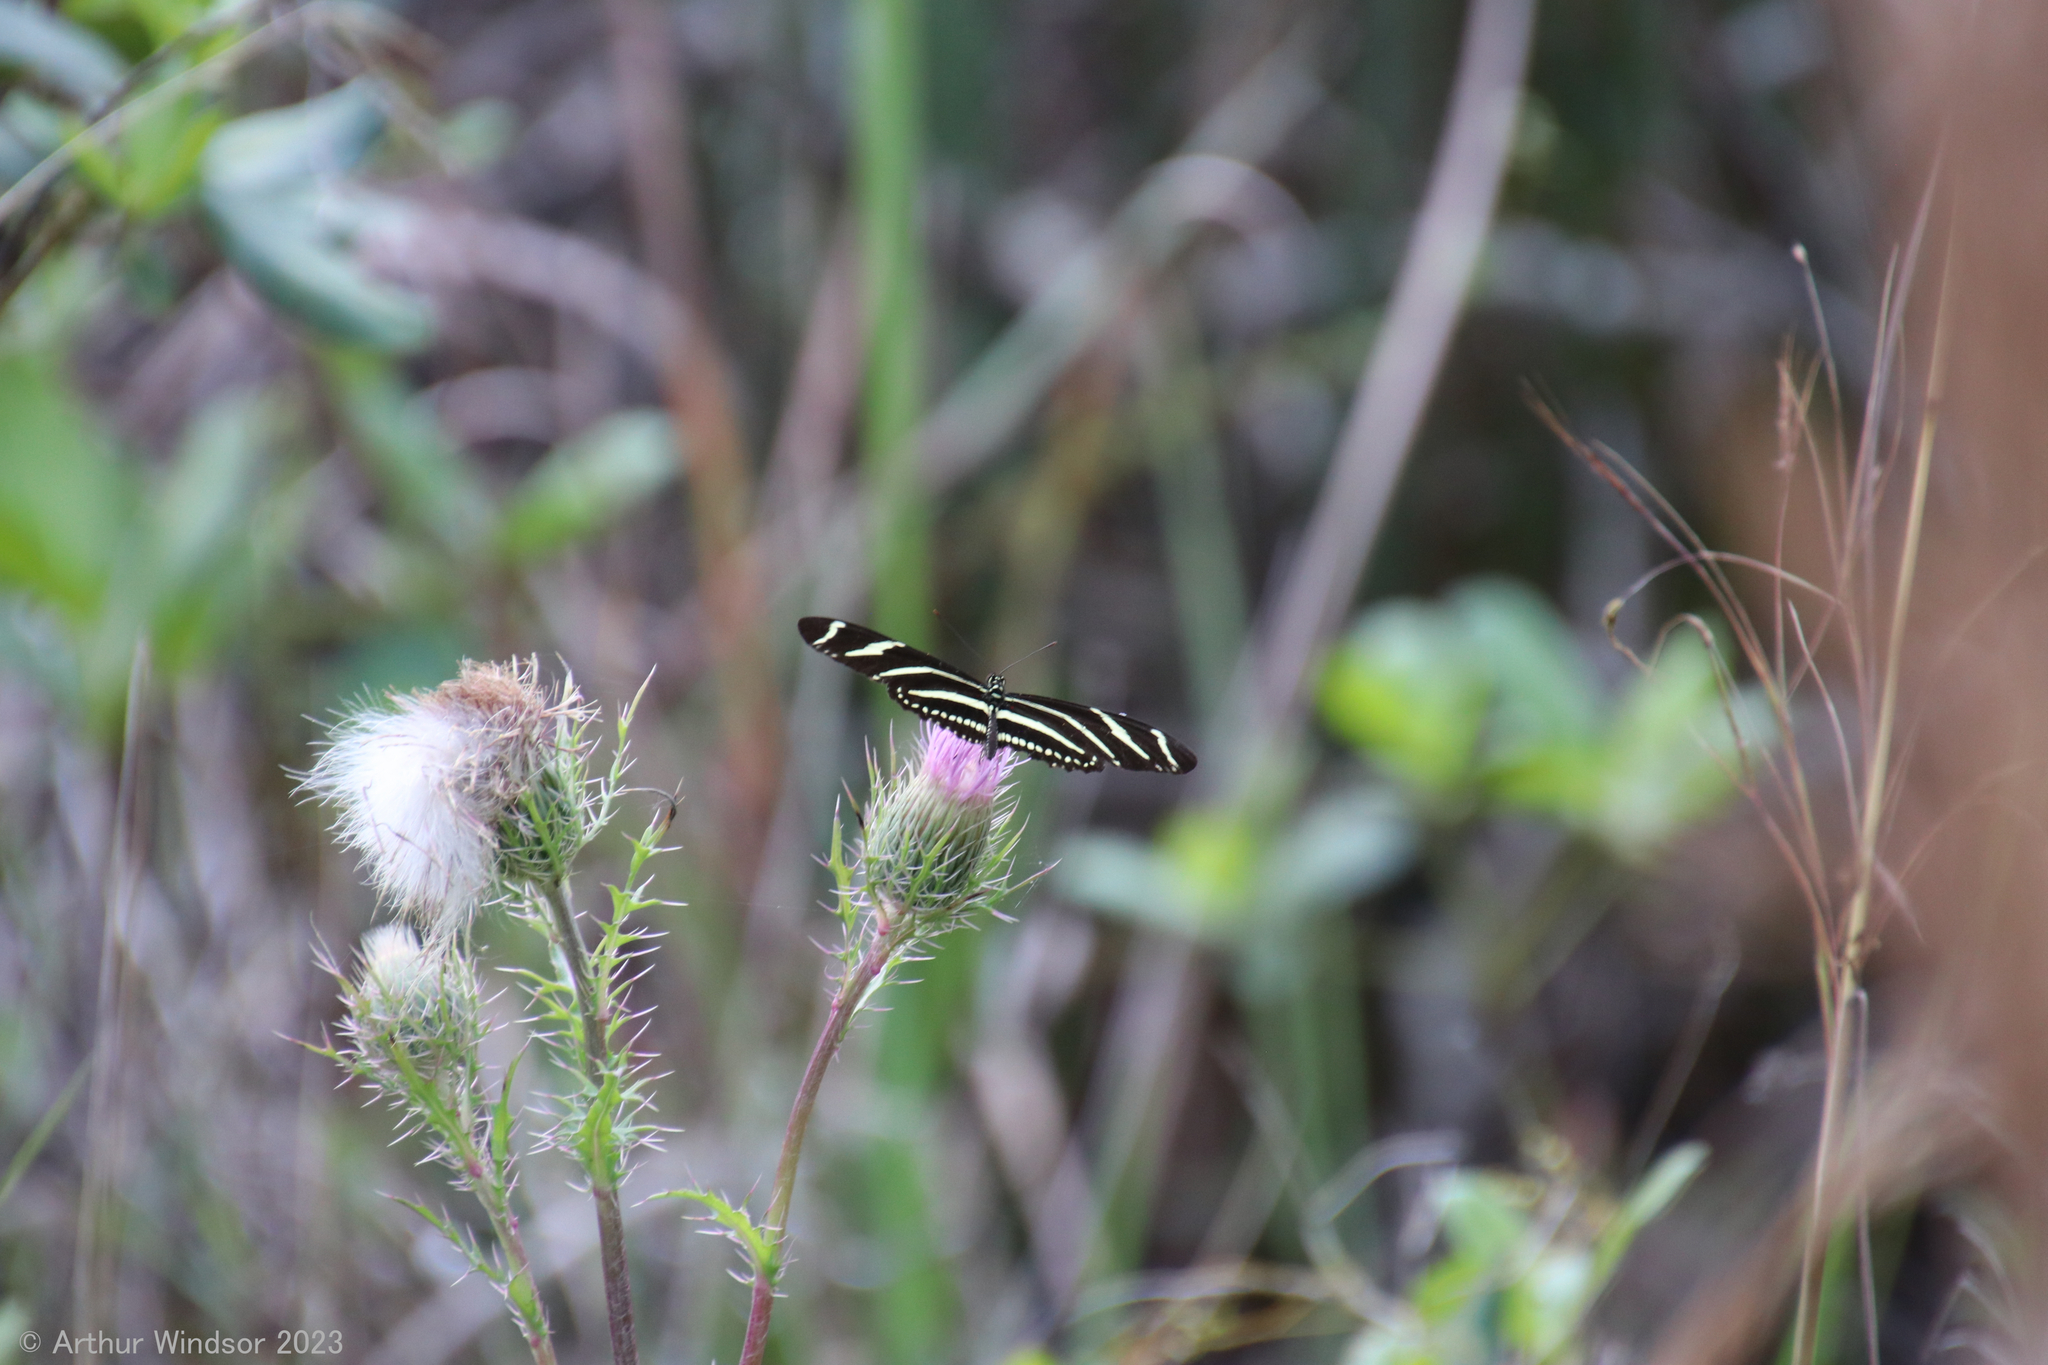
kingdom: Animalia
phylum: Arthropoda
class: Insecta
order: Lepidoptera
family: Nymphalidae
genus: Heliconius
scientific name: Heliconius charithonia
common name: Zebra long wing
